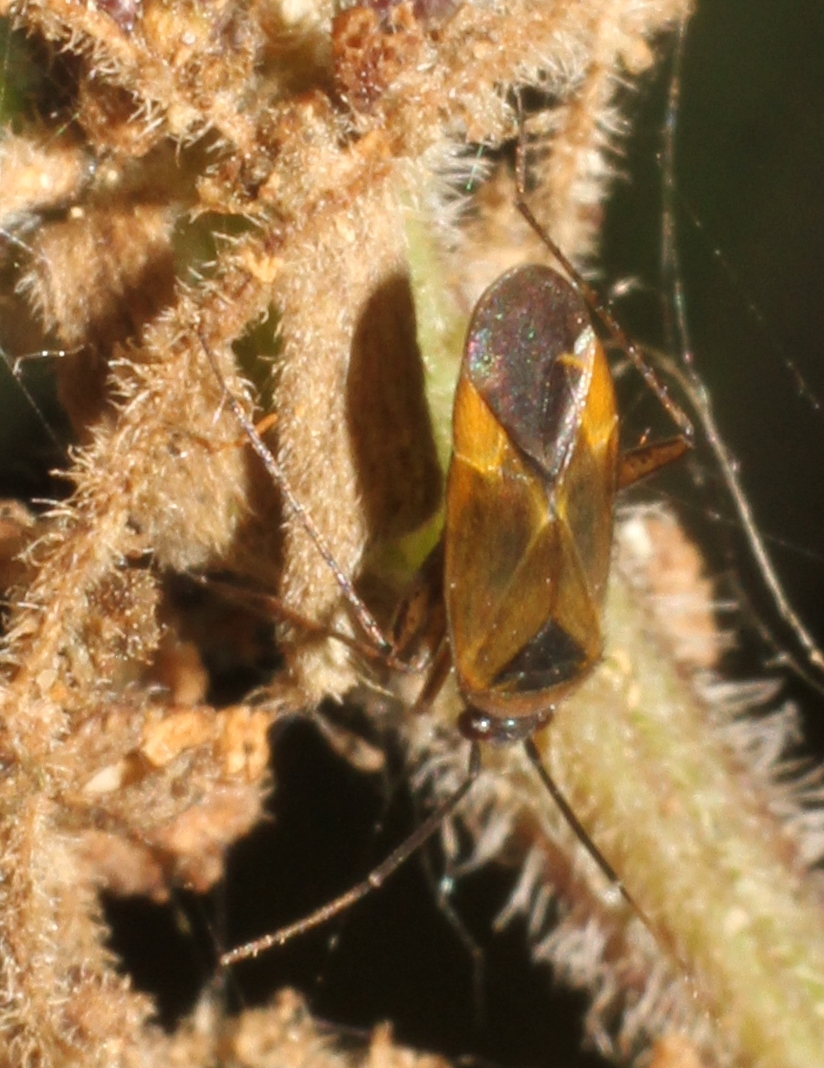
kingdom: Animalia
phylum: Arthropoda
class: Insecta
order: Hemiptera
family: Miridae
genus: Plagiognathus
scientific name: Plagiognathus arbustorum
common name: Plant bug
